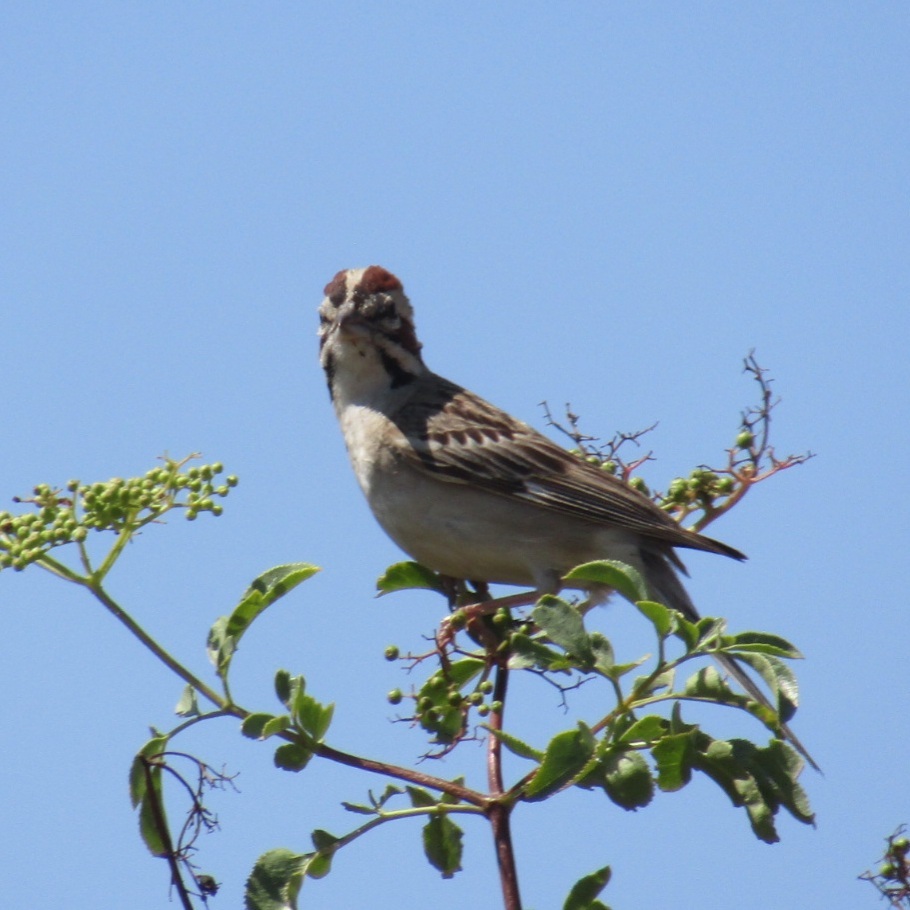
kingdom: Animalia
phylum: Chordata
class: Aves
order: Passeriformes
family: Passerellidae
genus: Chondestes
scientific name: Chondestes grammacus
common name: Lark sparrow
